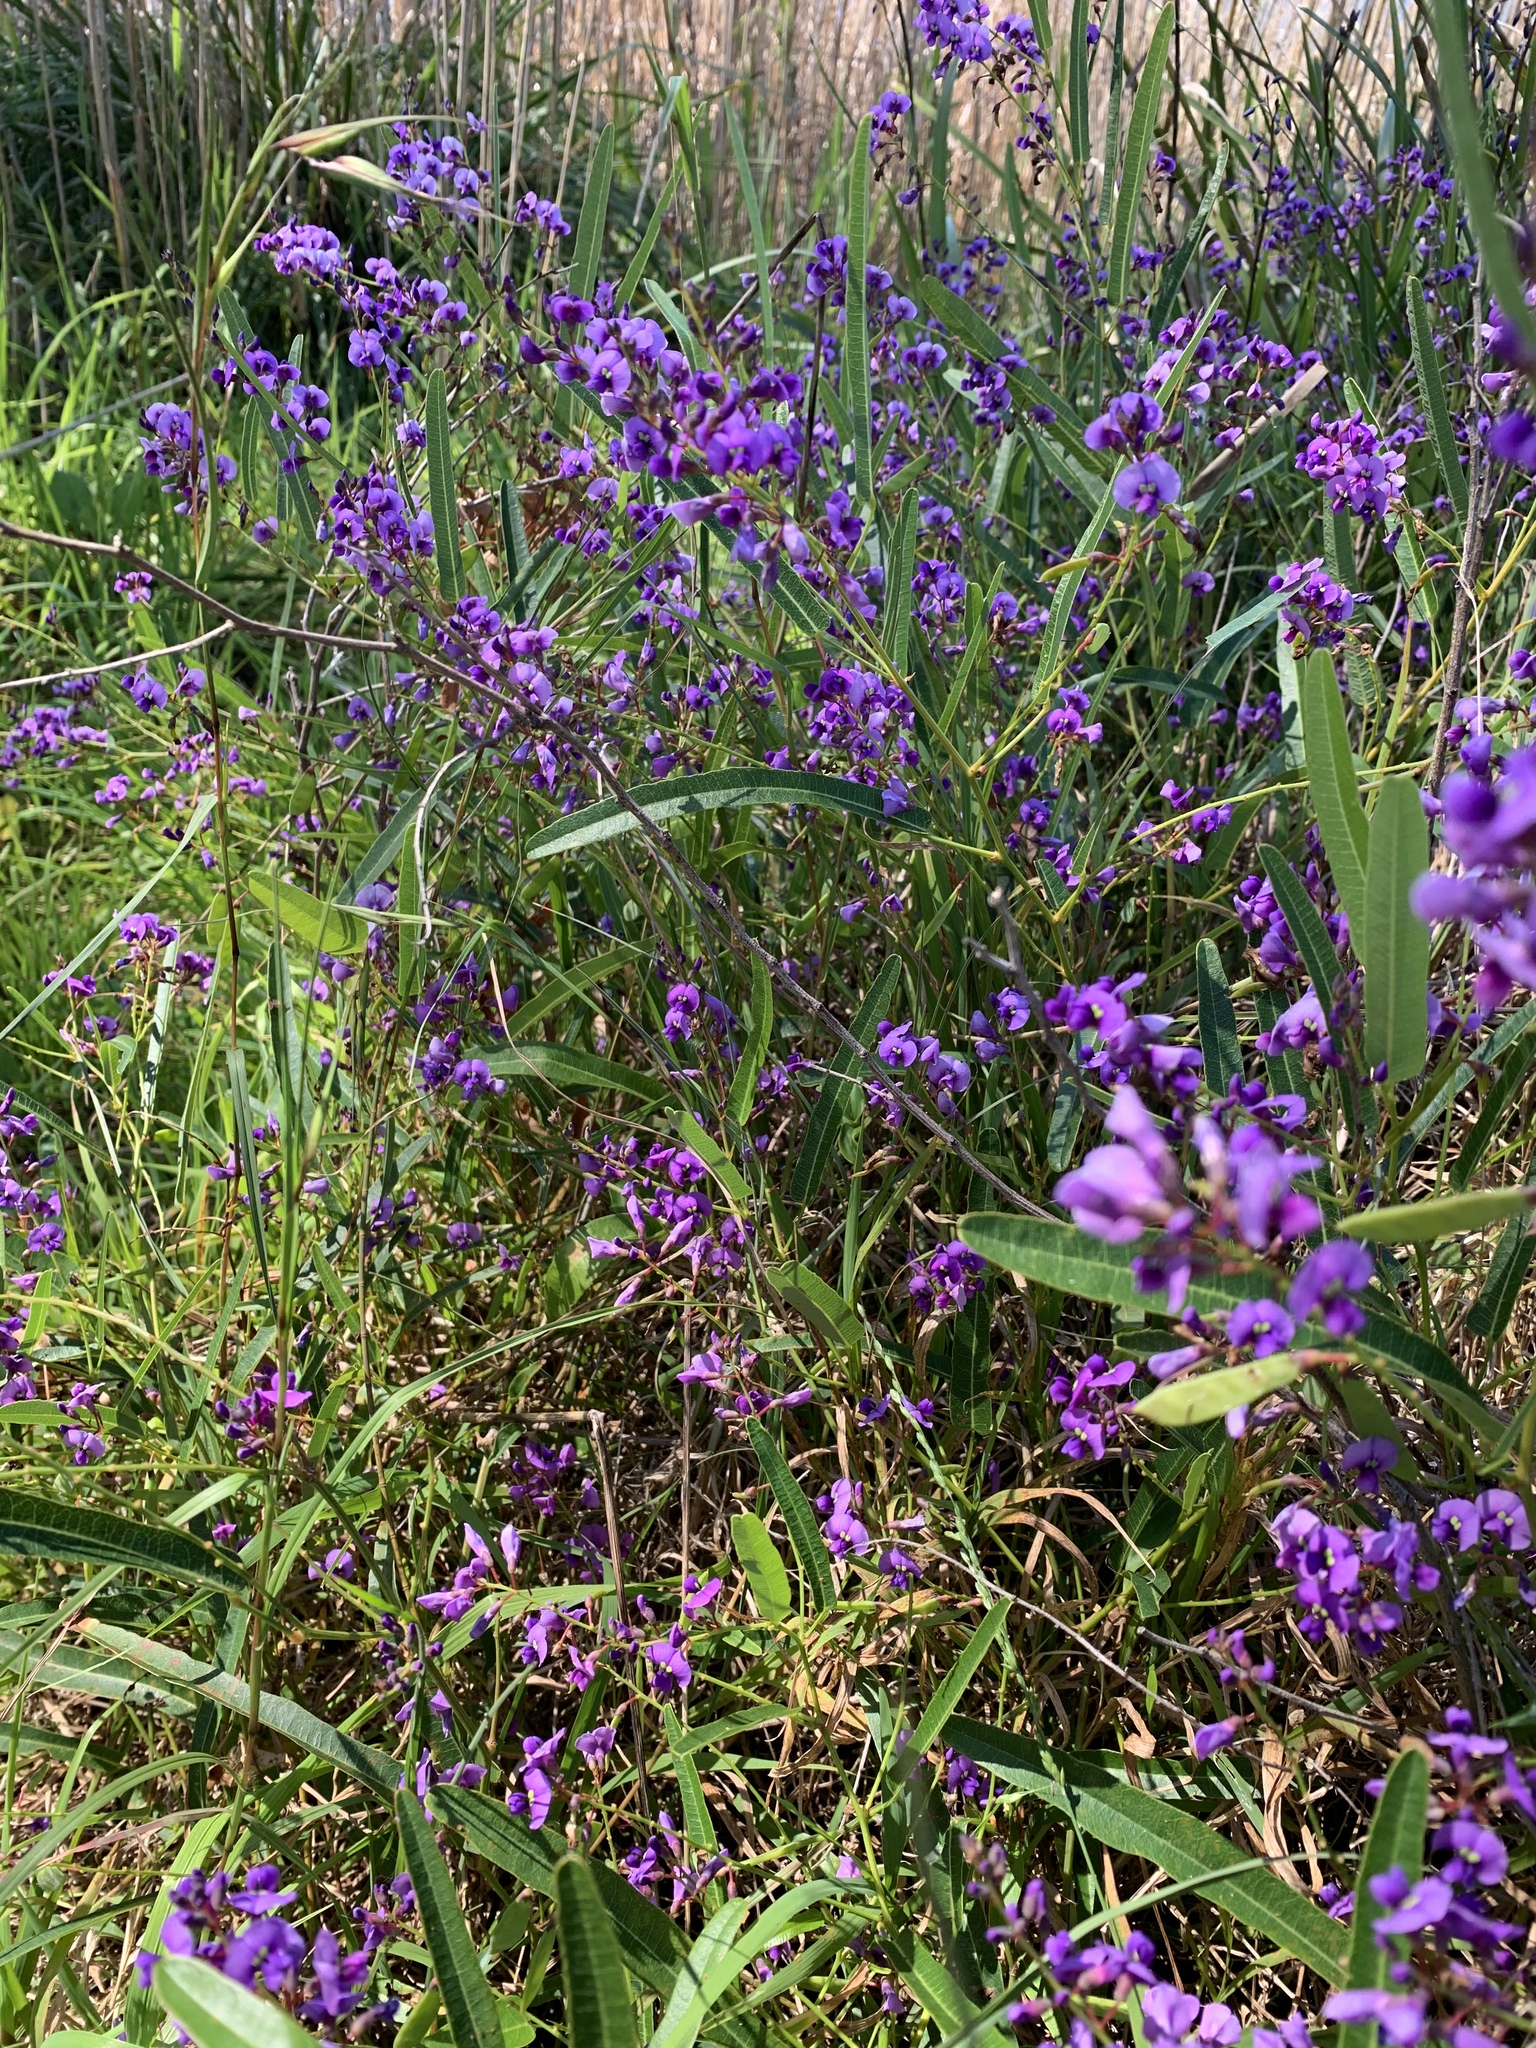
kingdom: Plantae
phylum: Tracheophyta
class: Magnoliopsida
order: Fabales
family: Fabaceae
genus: Hardenbergia
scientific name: Hardenbergia violacea
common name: Coral-pea
